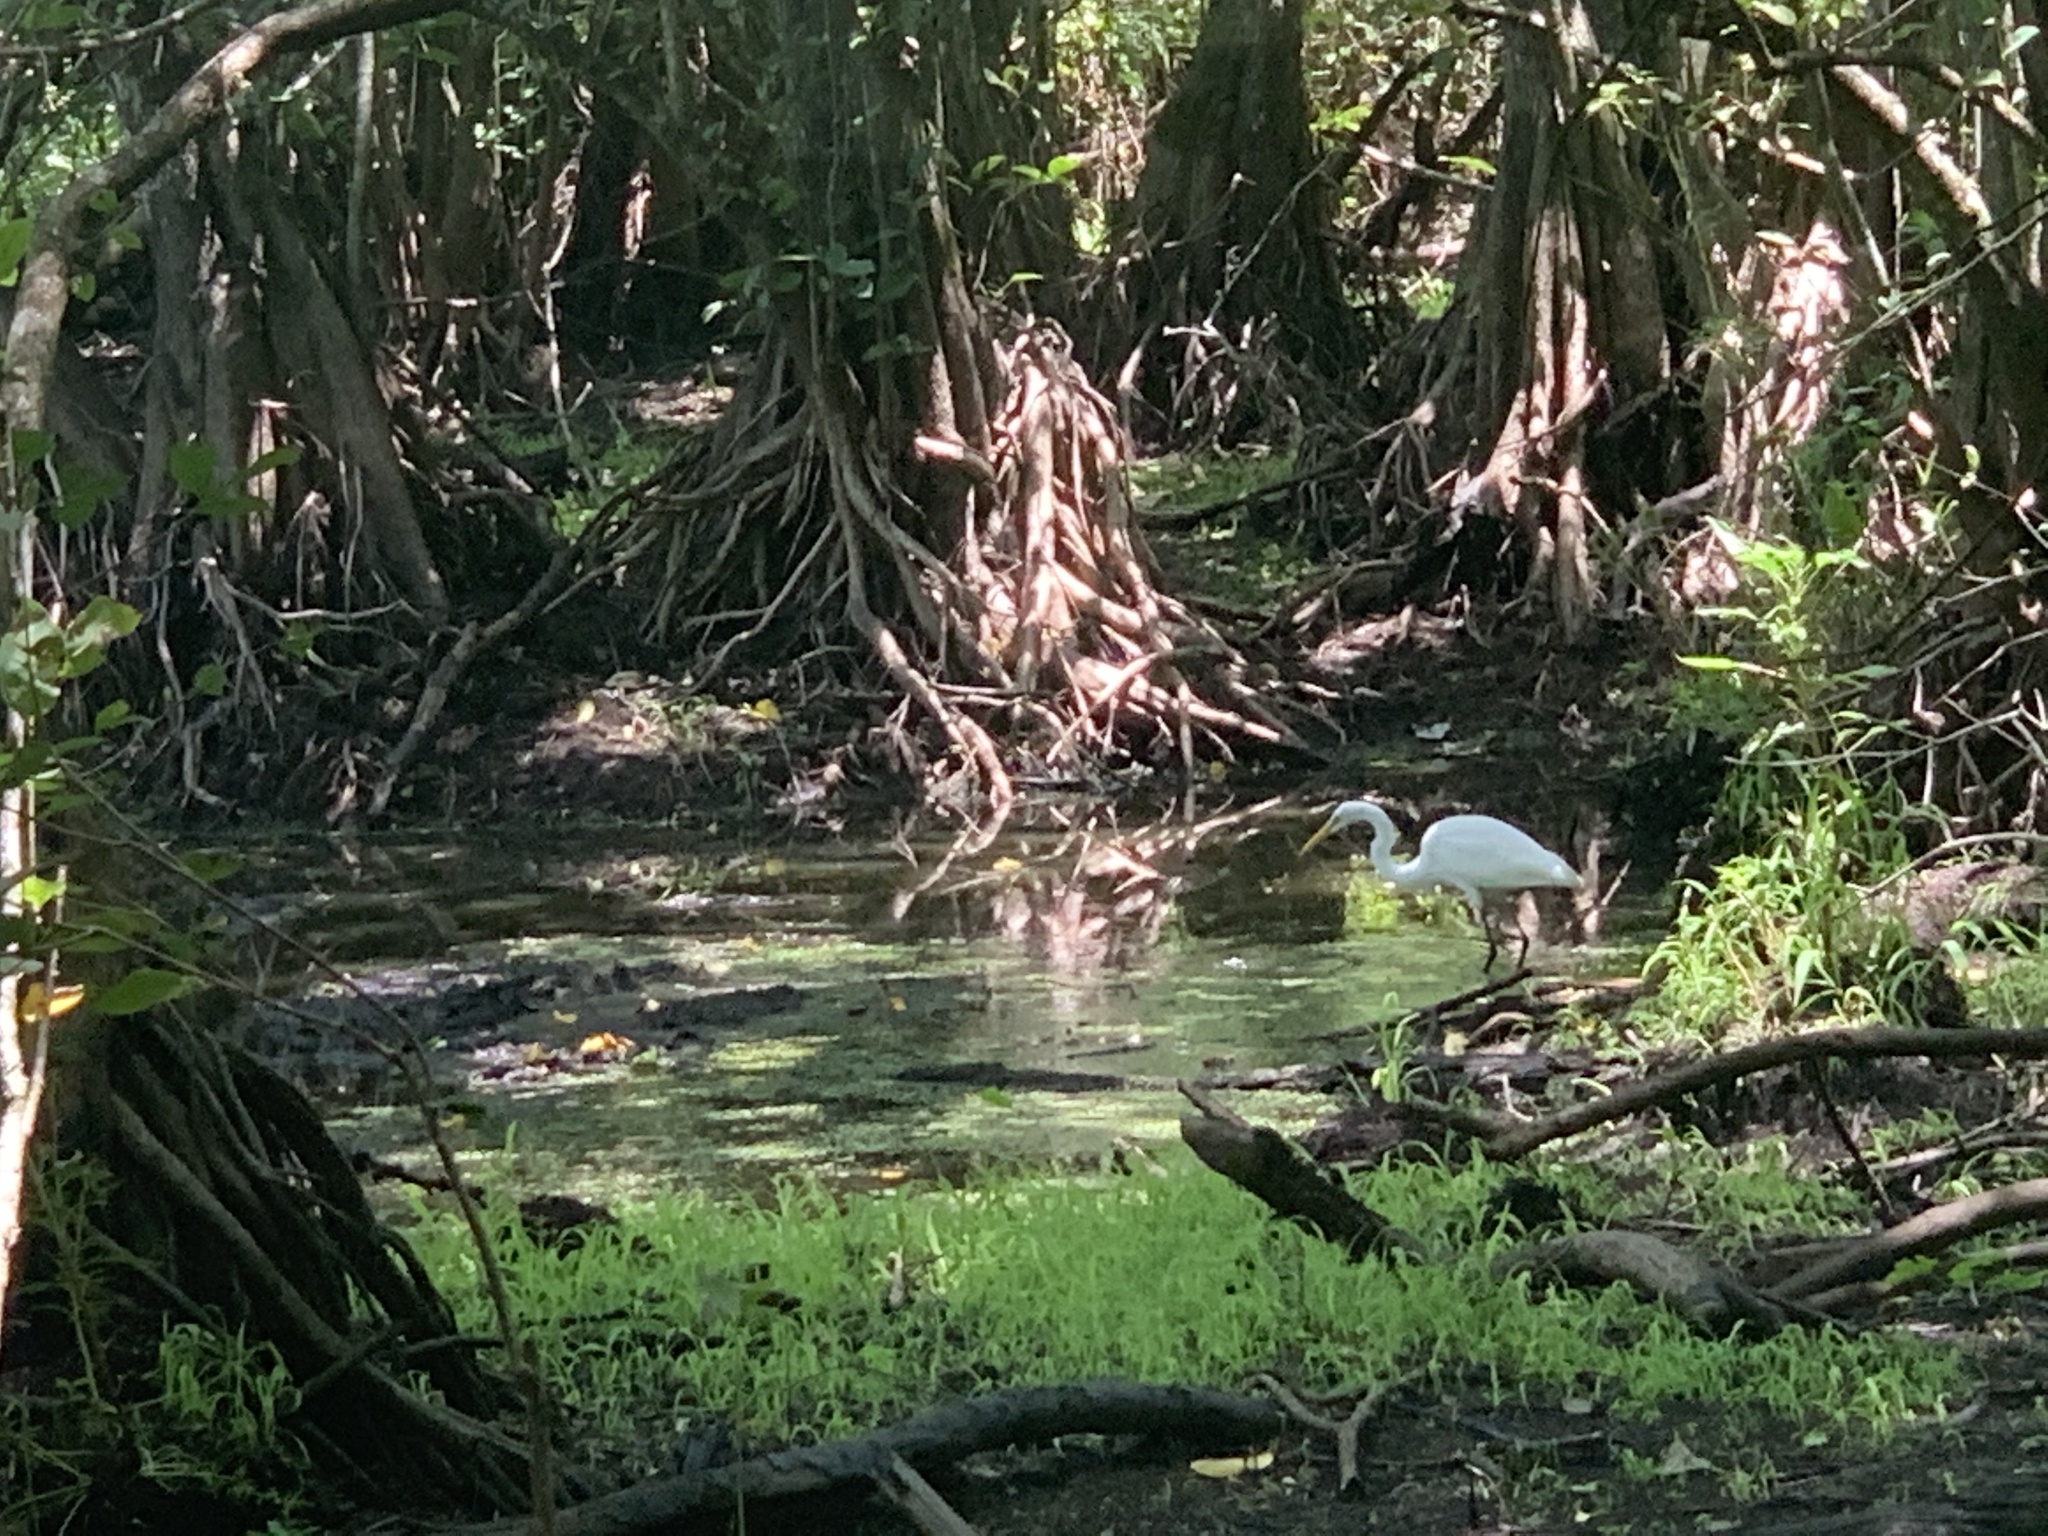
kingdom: Animalia
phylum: Chordata
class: Aves
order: Pelecaniformes
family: Ardeidae
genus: Ardea
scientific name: Ardea alba
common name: Great egret
